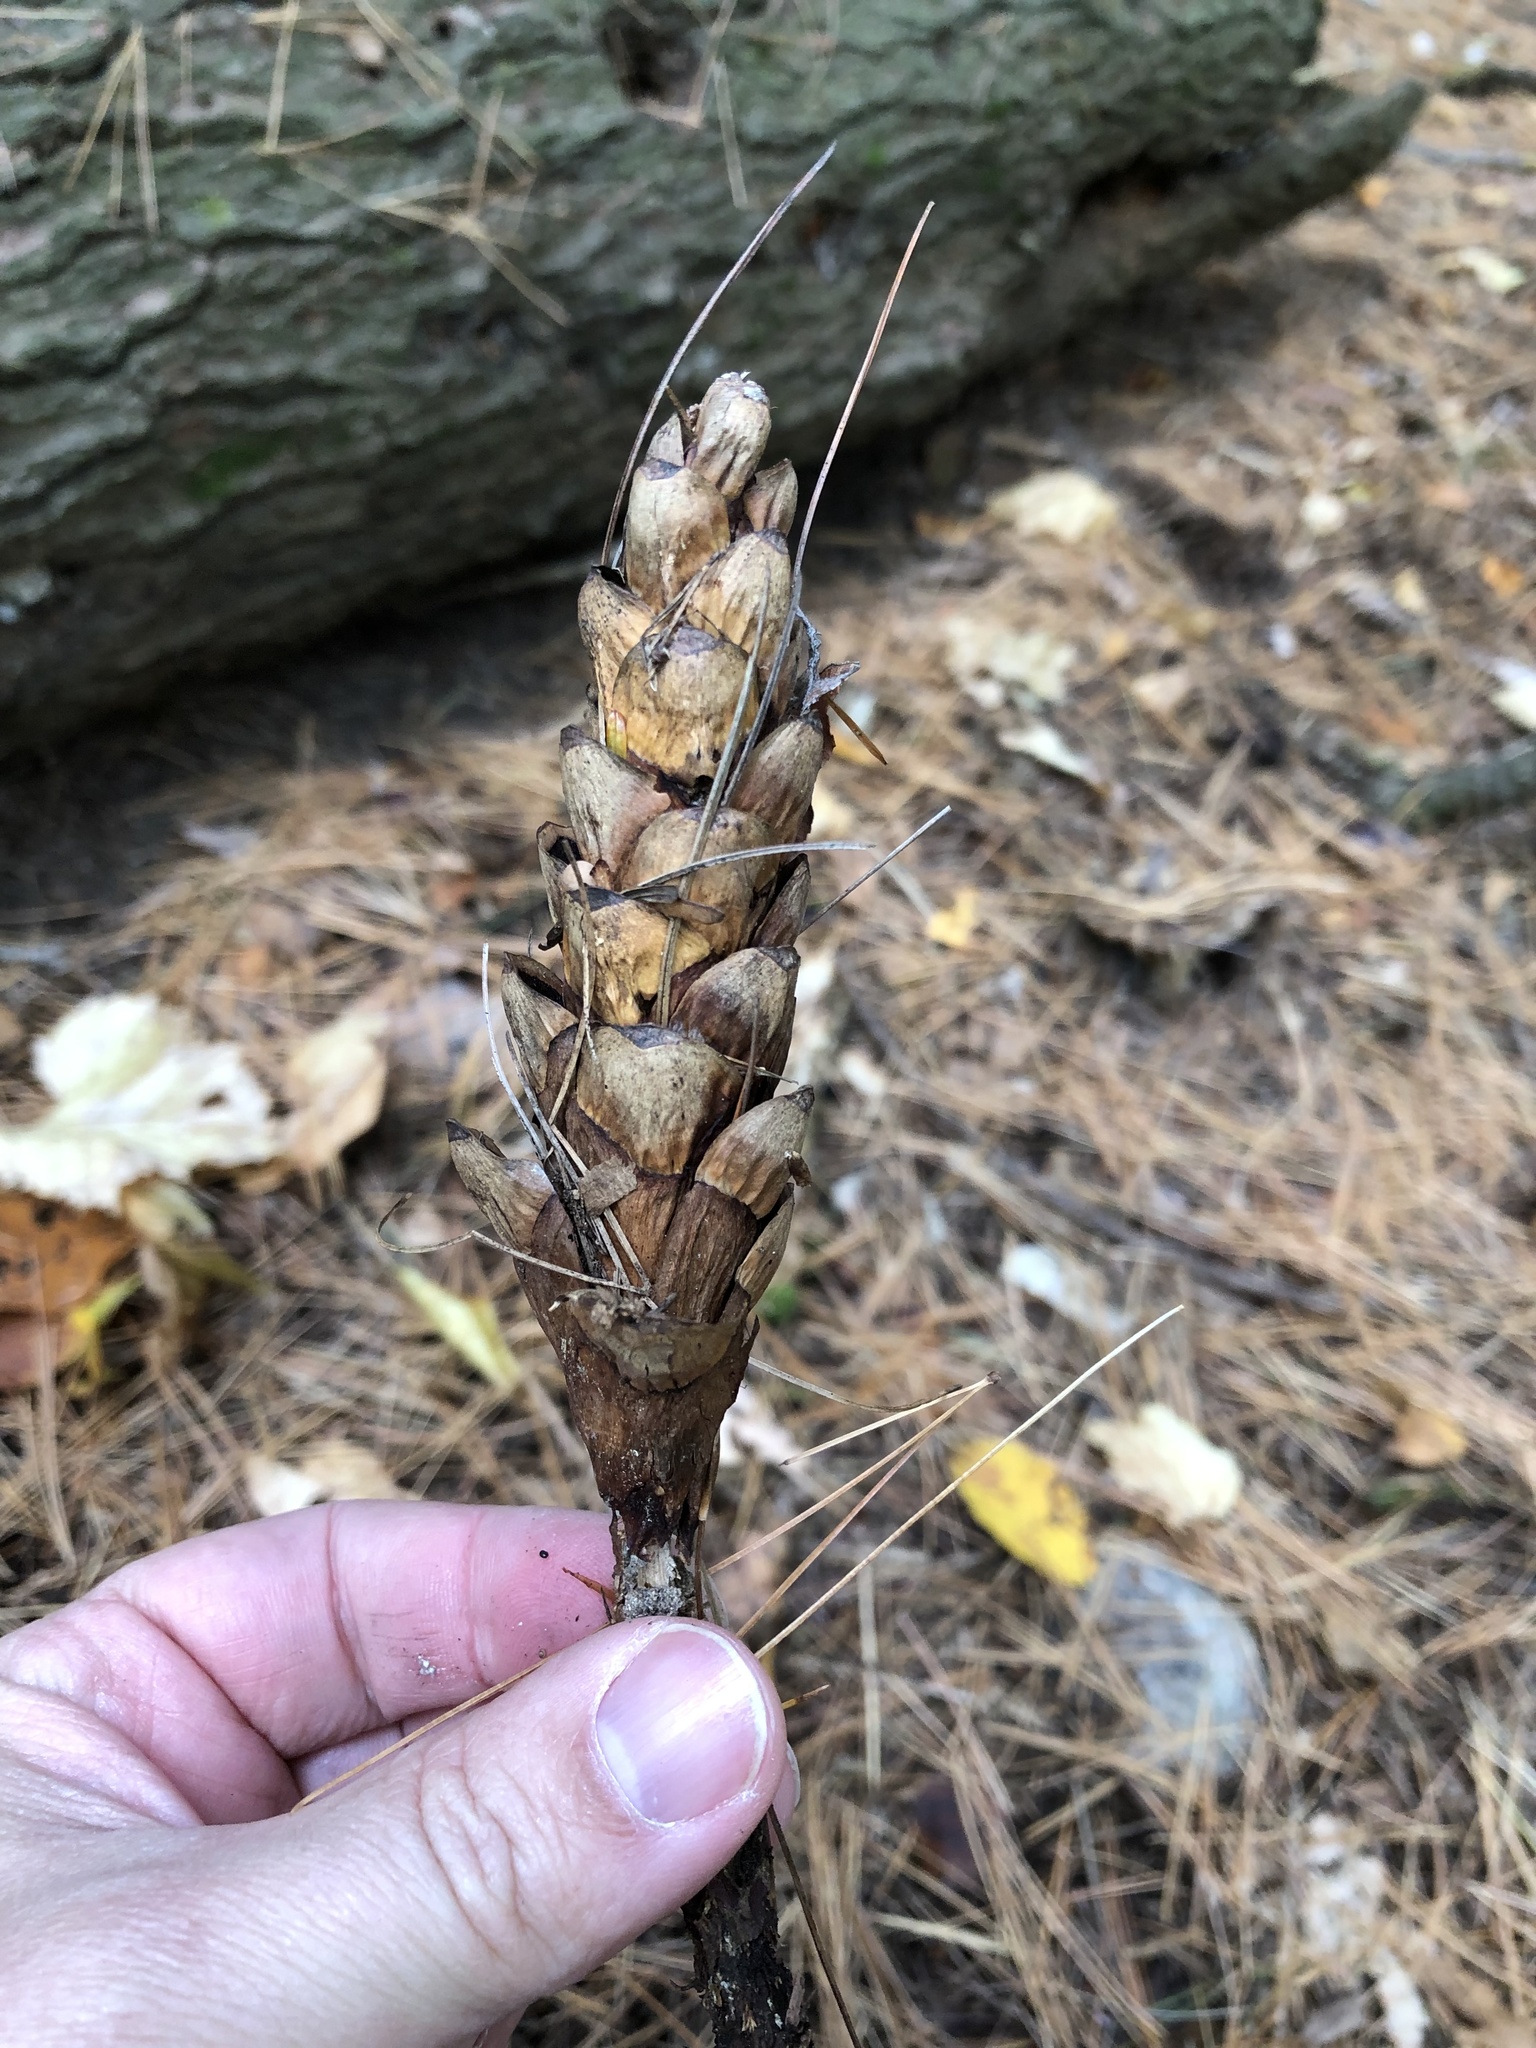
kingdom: Plantae
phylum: Tracheophyta
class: Pinopsida
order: Pinales
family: Pinaceae
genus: Pinus
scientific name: Pinus strobus
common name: Weymouth pine
